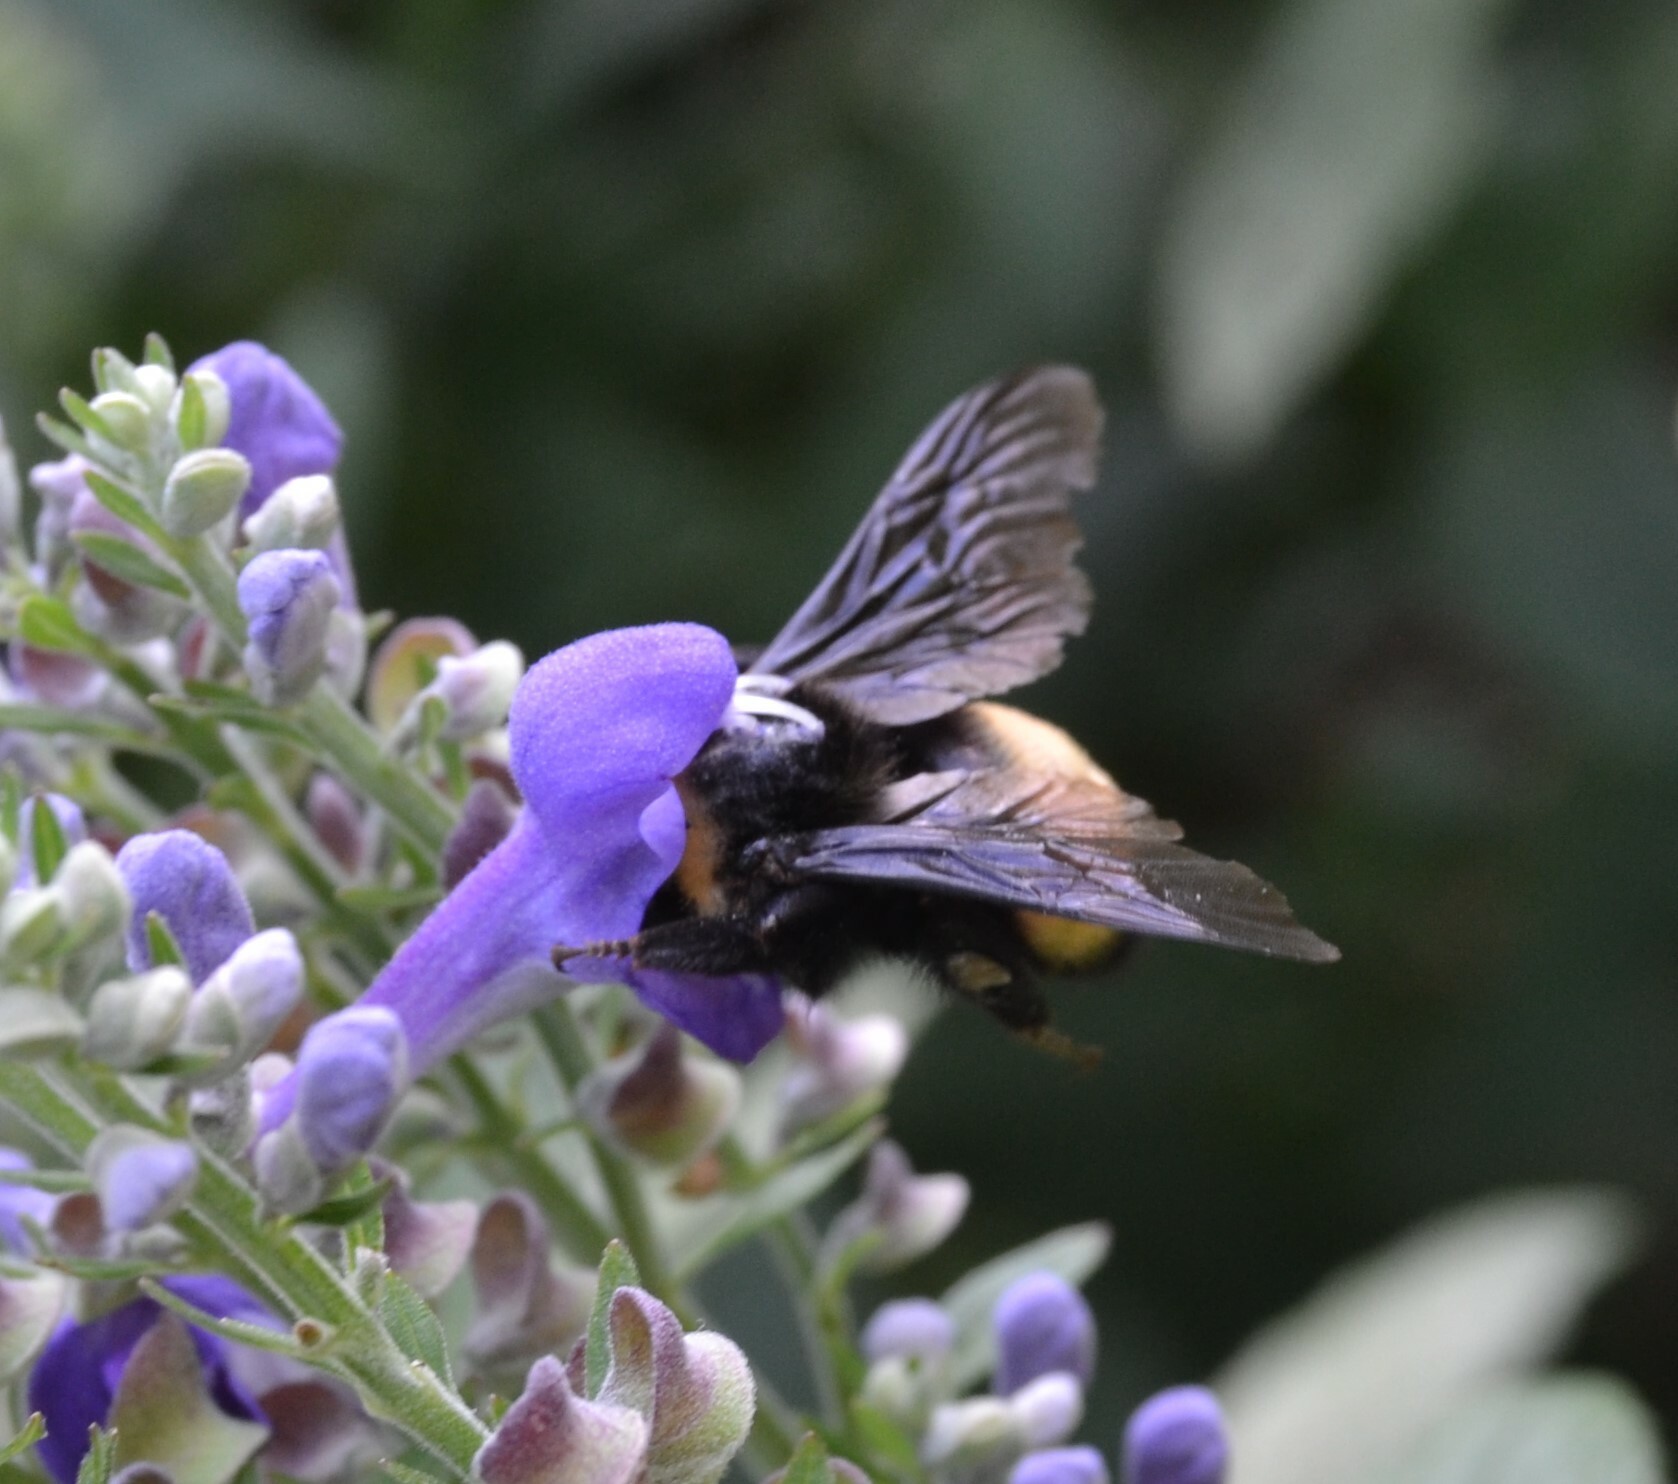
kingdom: Animalia
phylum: Arthropoda
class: Insecta
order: Hymenoptera
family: Apidae
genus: Bombus
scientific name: Bombus auricomus
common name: Black and gold bumble bee
